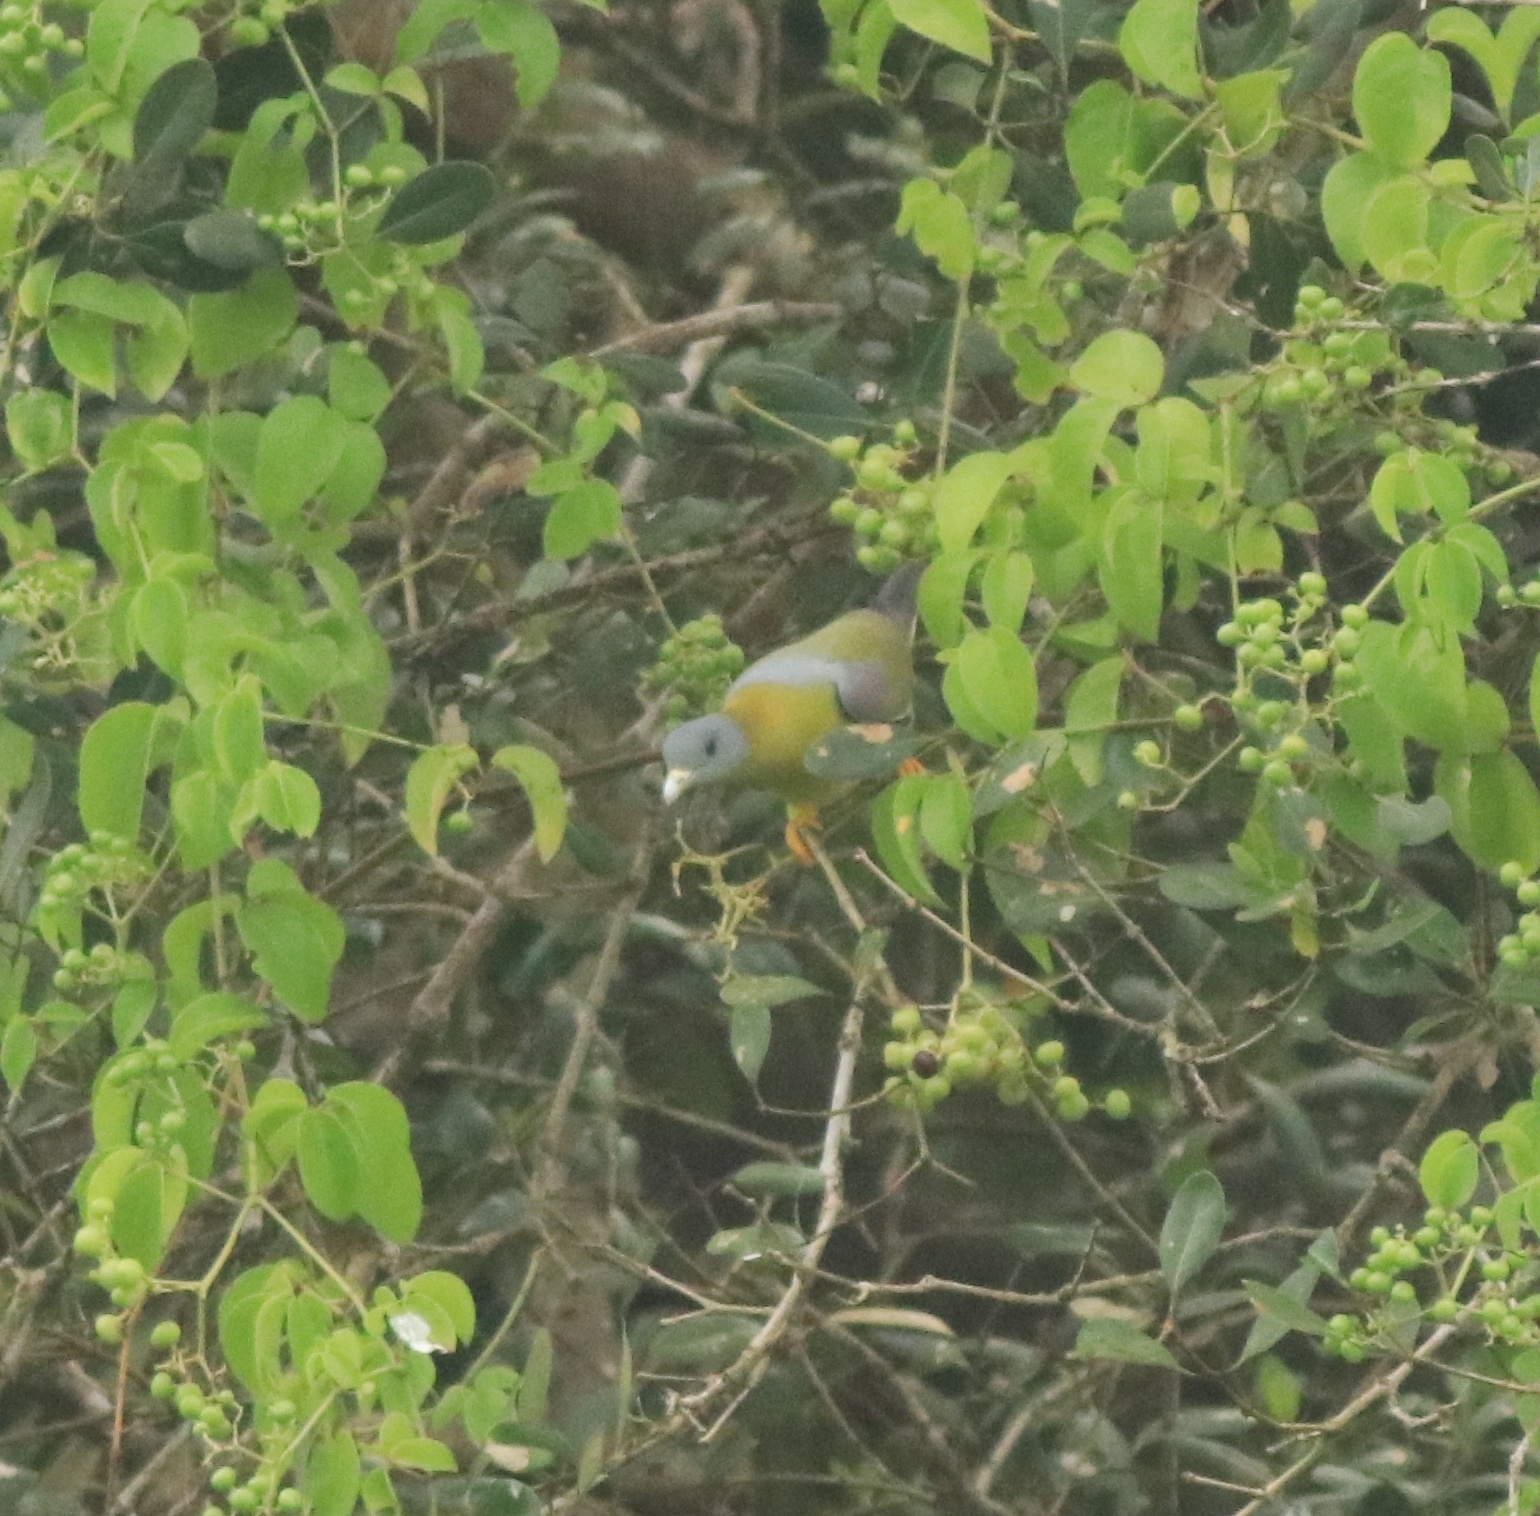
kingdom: Animalia
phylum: Chordata
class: Aves
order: Columbiformes
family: Columbidae
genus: Treron
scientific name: Treron phoenicopterus
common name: Yellow-footed green pigeon
